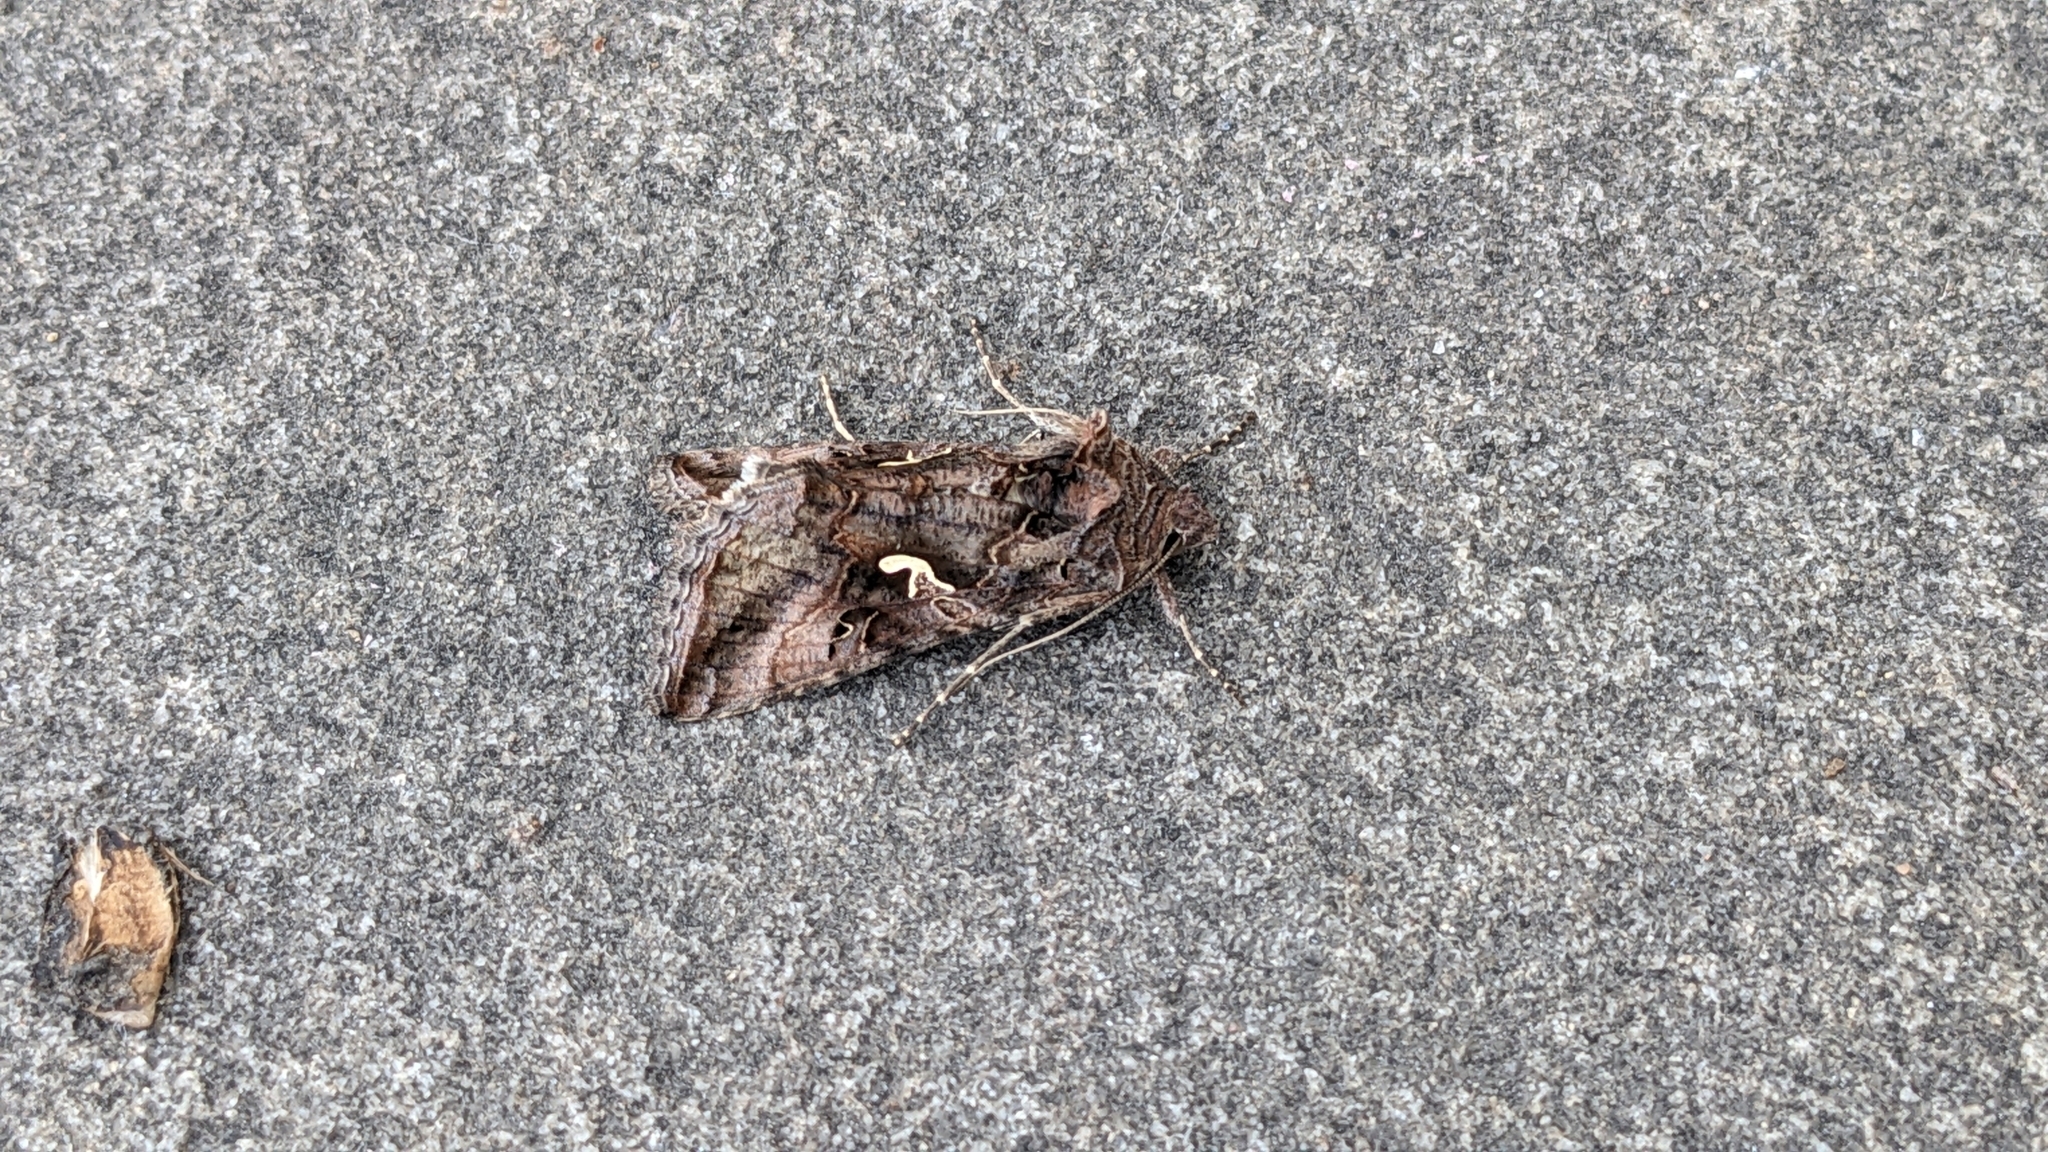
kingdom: Animalia
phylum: Arthropoda
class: Insecta
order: Lepidoptera
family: Noctuidae
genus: Autographa
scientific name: Autographa gamma
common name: Silver y
